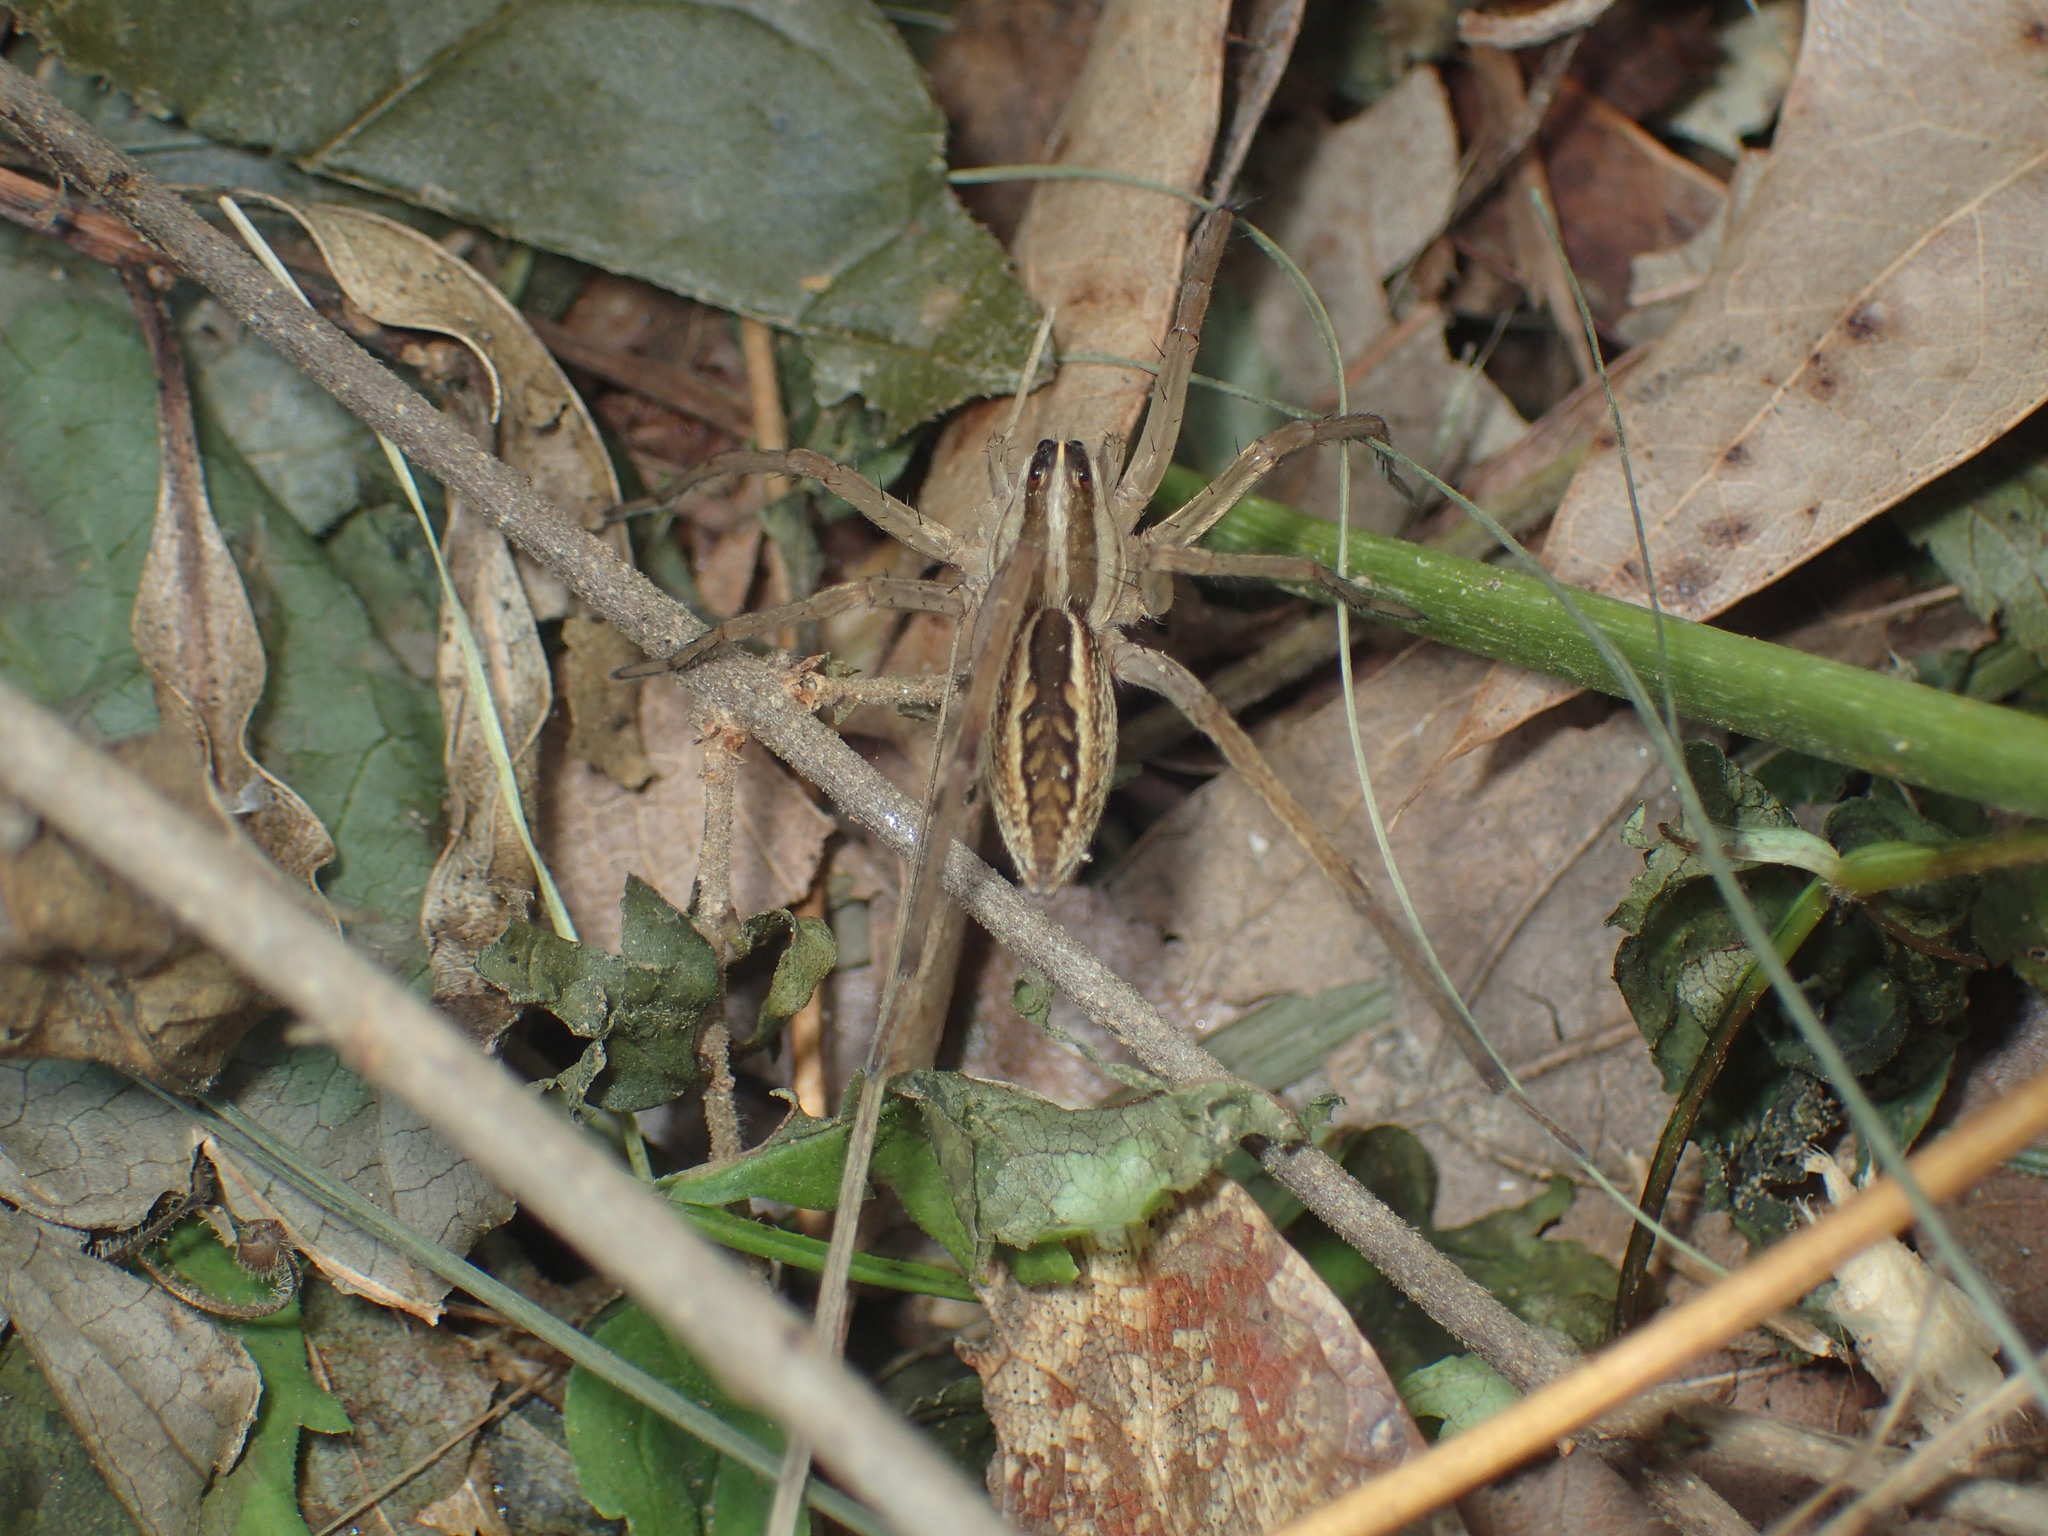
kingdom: Animalia
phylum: Arthropoda
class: Arachnida
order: Araneae
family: Lycosidae
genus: Rabidosa
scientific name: Rabidosa rabida
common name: Rabid wolf spider
